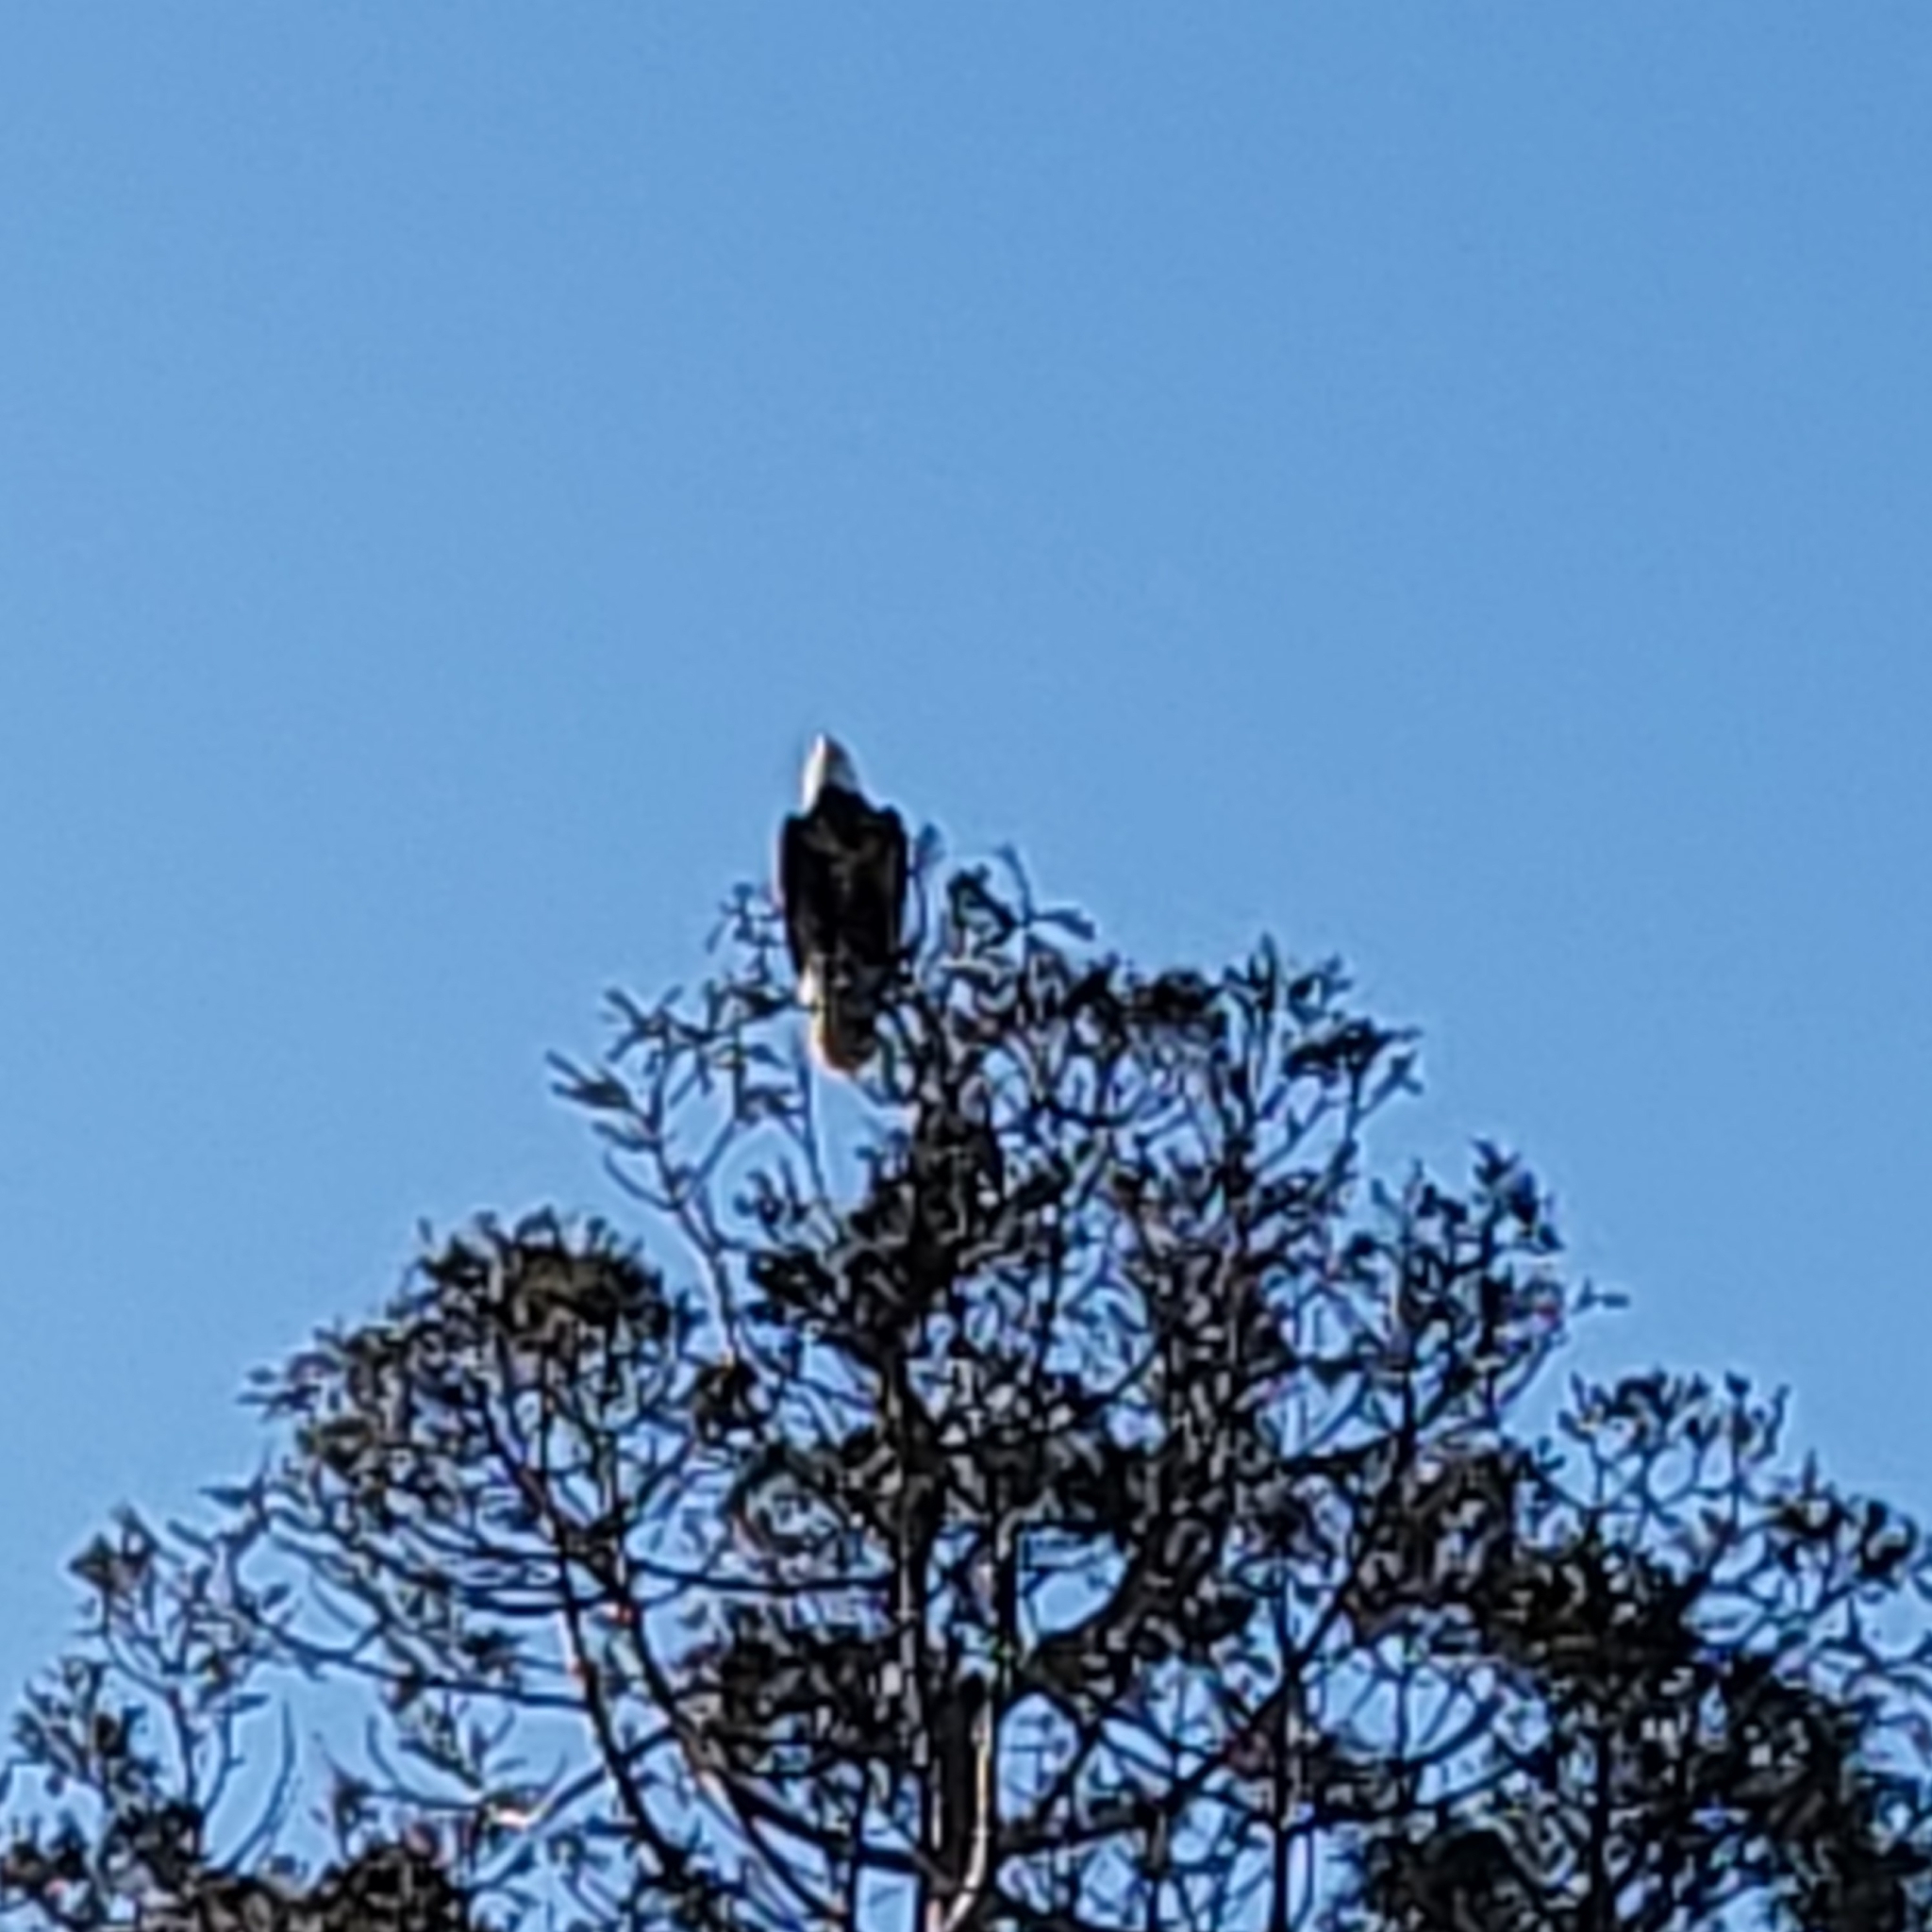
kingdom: Animalia
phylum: Chordata
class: Aves
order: Accipitriformes
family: Accipitridae
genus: Haliaeetus
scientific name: Haliaeetus leucocephalus
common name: Bald eagle
